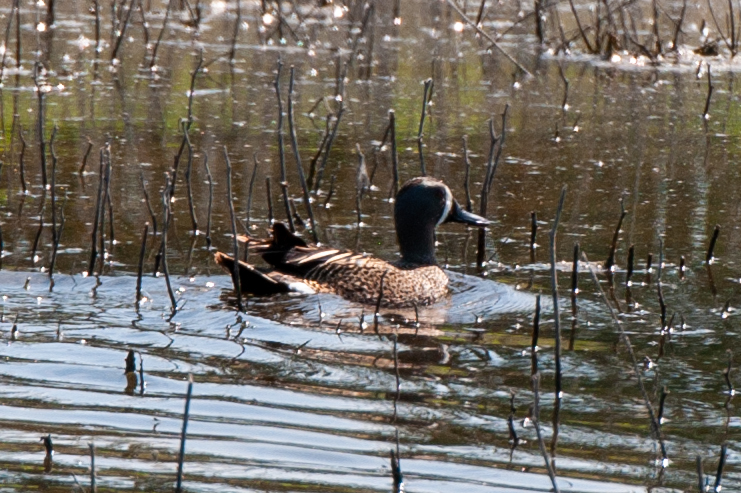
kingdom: Animalia
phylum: Chordata
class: Aves
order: Anseriformes
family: Anatidae
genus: Spatula
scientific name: Spatula discors
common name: Blue-winged teal
